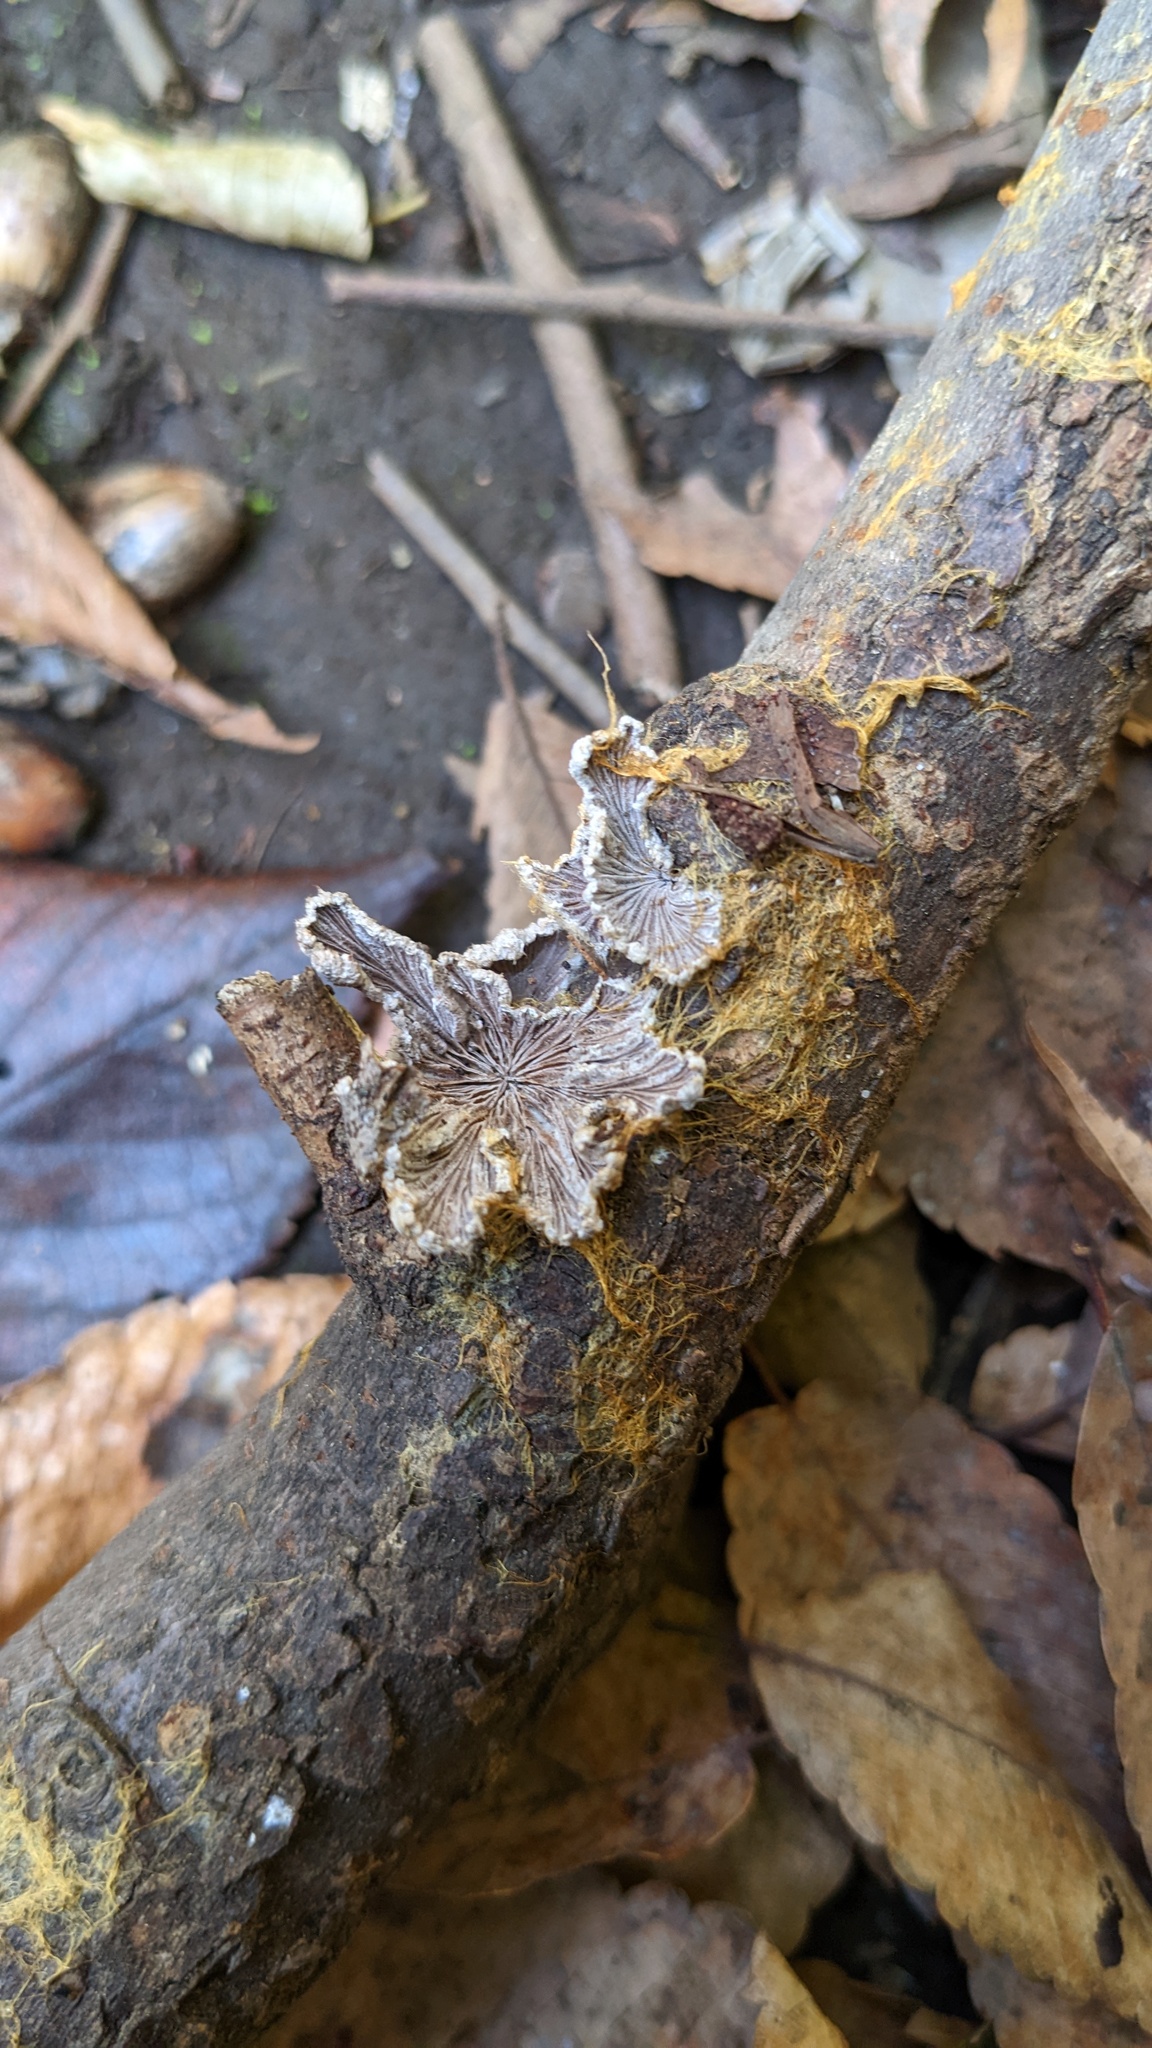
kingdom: Fungi
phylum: Basidiomycota
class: Agaricomycetes
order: Agaricales
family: Schizophyllaceae
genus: Schizophyllum
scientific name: Schizophyllum commune
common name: Common porecrust
